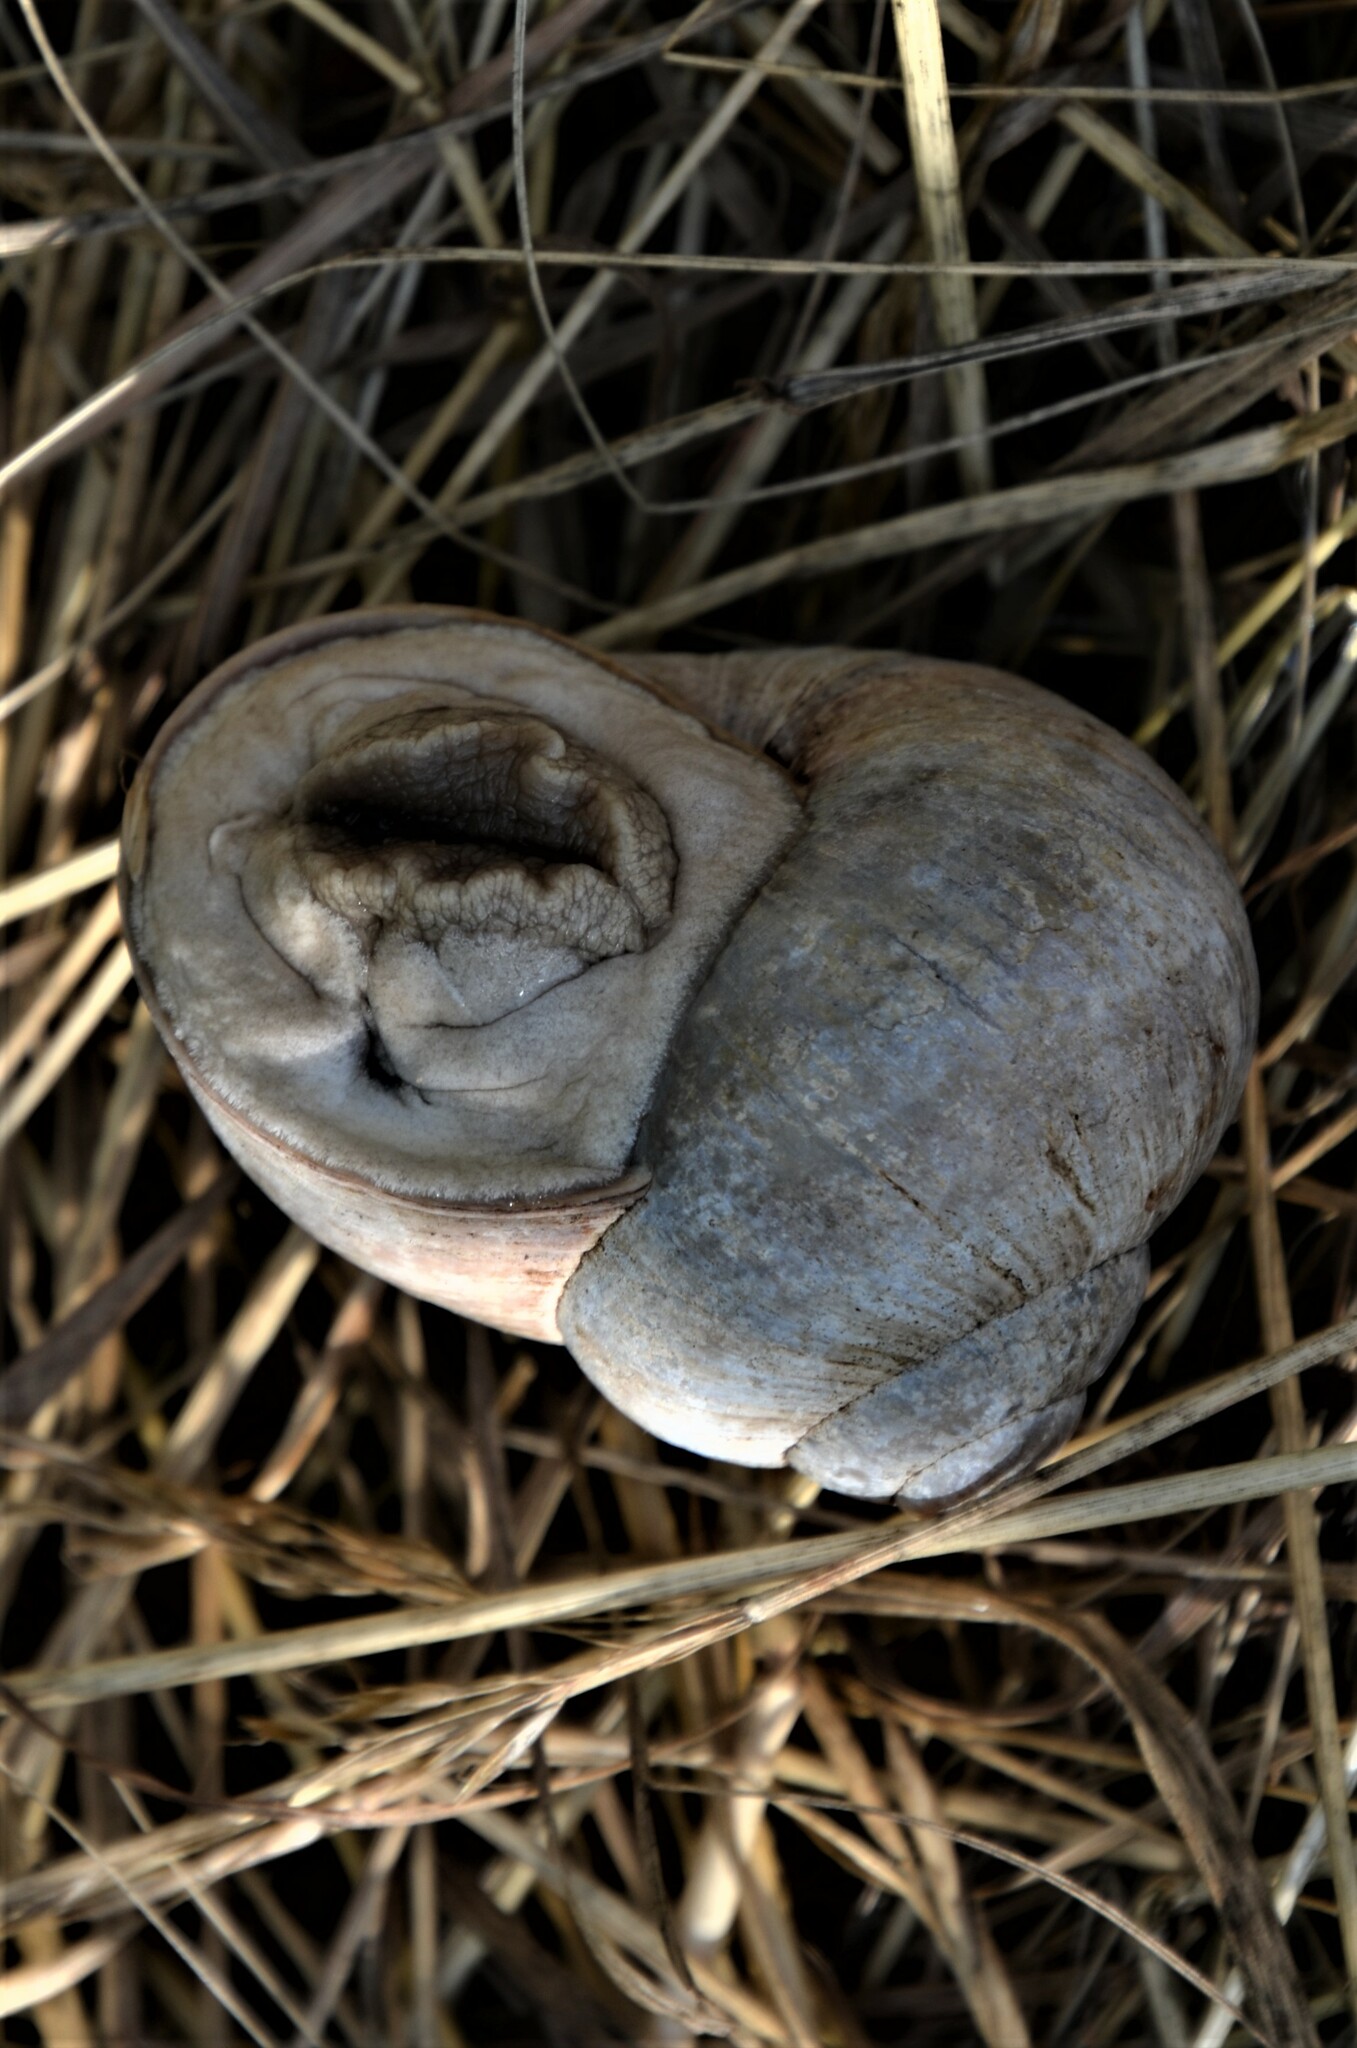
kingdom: Animalia
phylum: Mollusca
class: Gastropoda
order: Stylommatophora
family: Helicidae
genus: Helix
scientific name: Helix pomatia
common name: Roman snail
